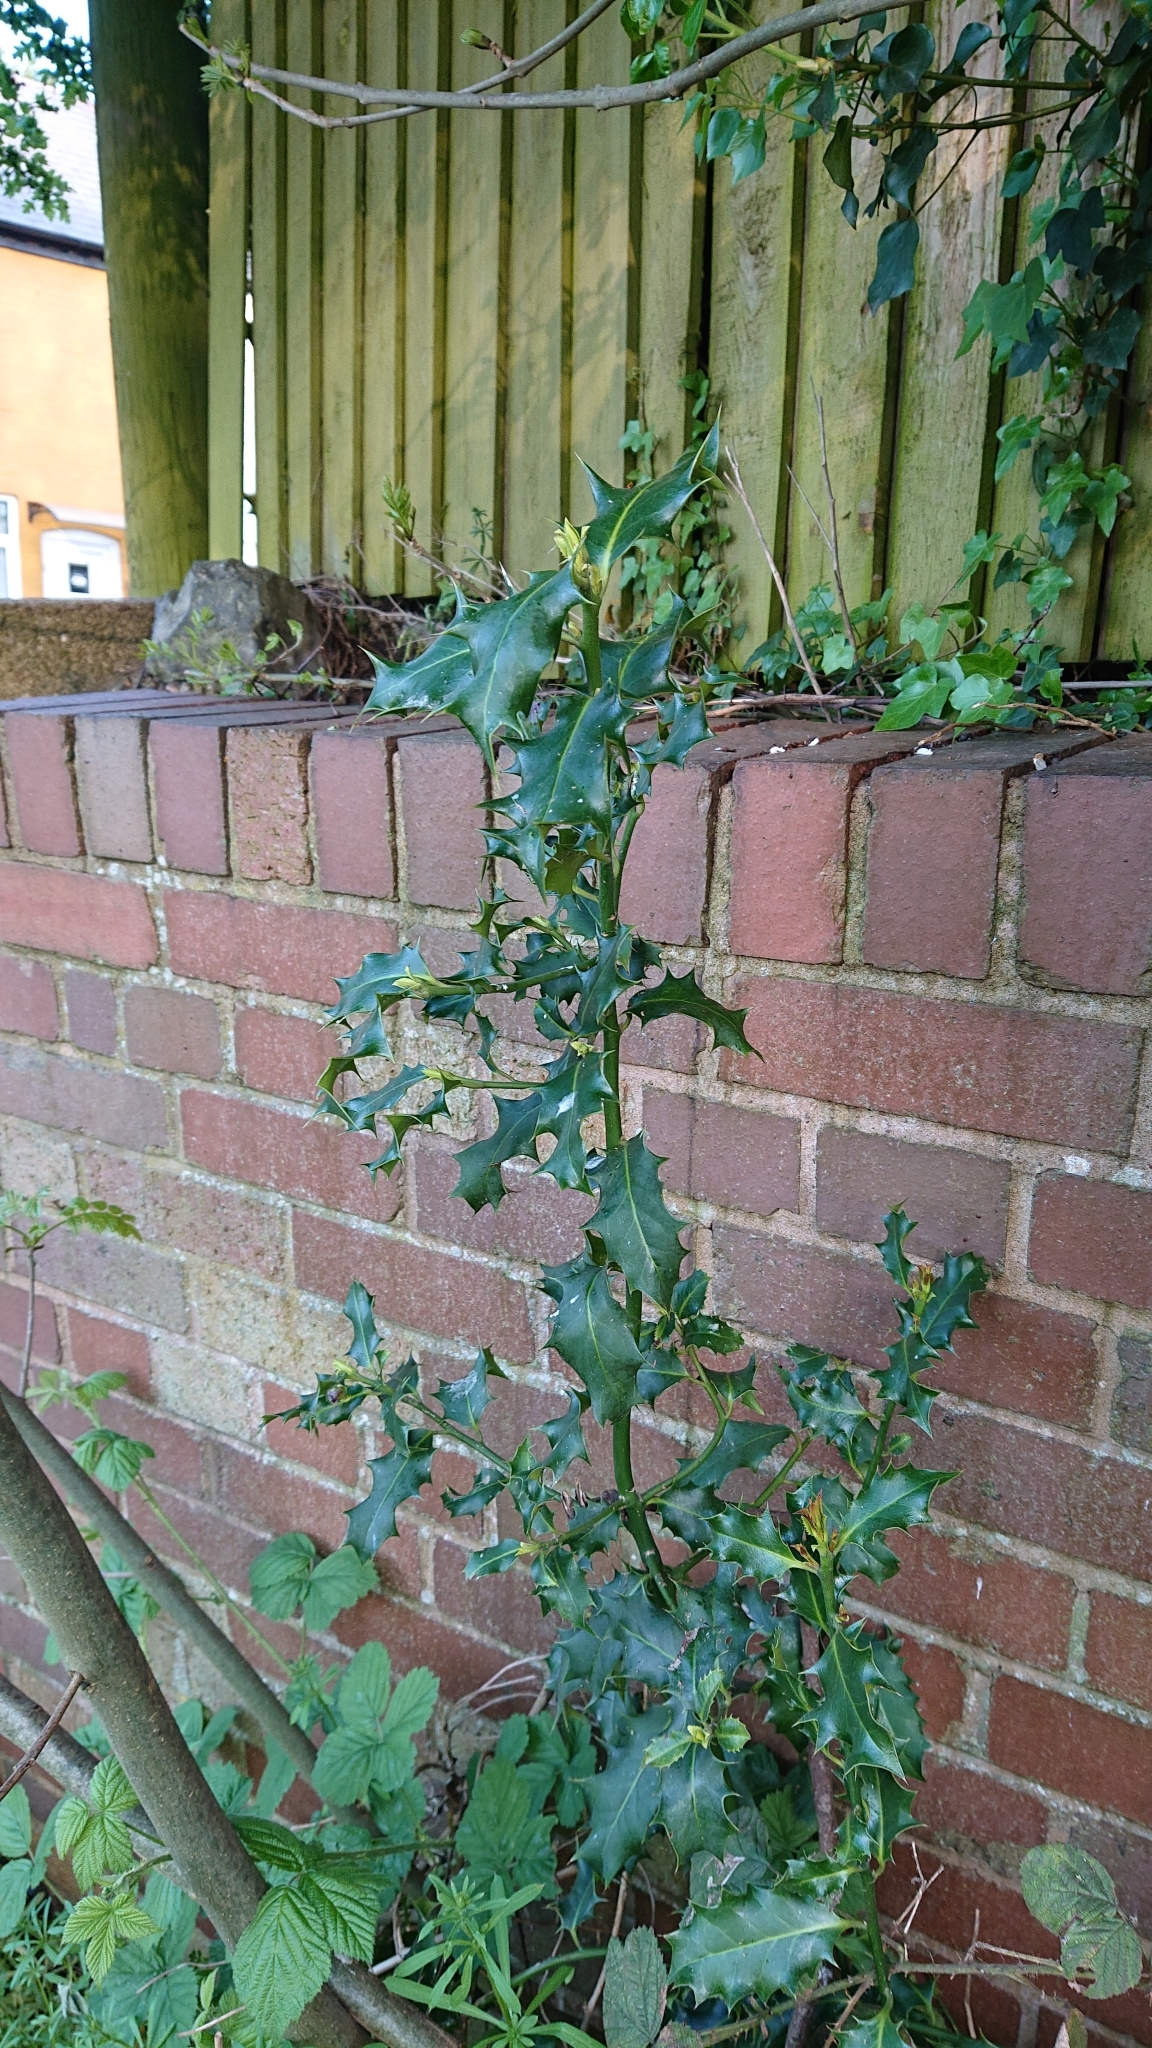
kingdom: Plantae
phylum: Tracheophyta
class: Magnoliopsida
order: Aquifoliales
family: Aquifoliaceae
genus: Ilex
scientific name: Ilex aquifolium
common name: English holly
